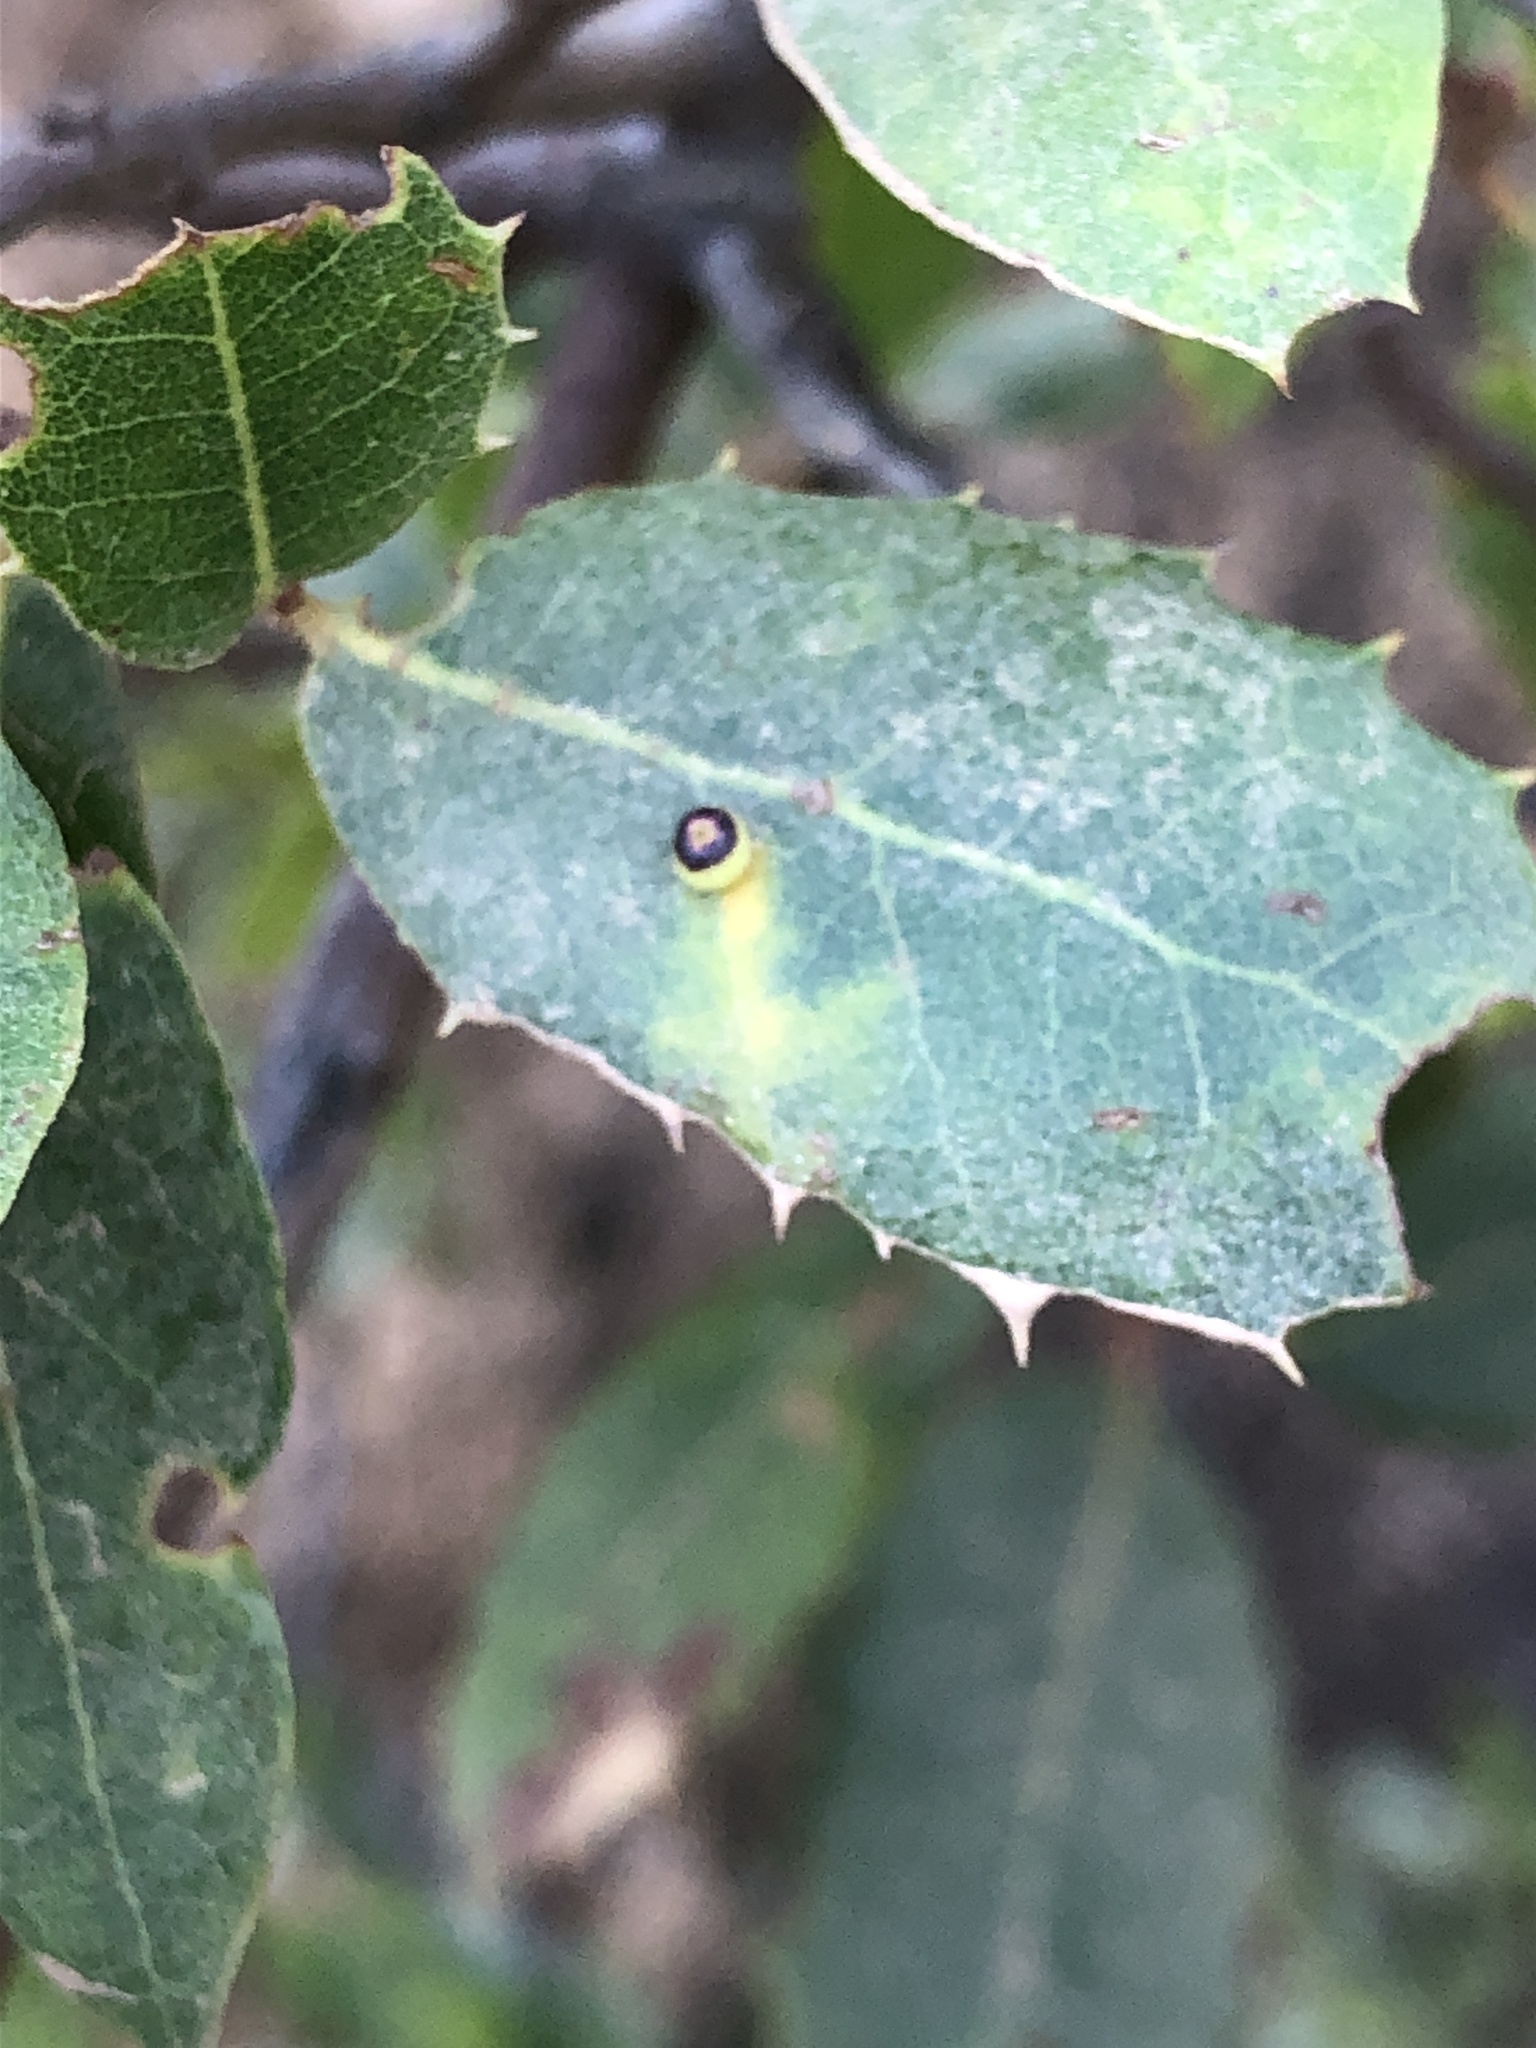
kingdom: Animalia
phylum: Arthropoda
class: Insecta
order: Hymenoptera
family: Cynipidae
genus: Dryocosmus
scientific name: Dryocosmus
